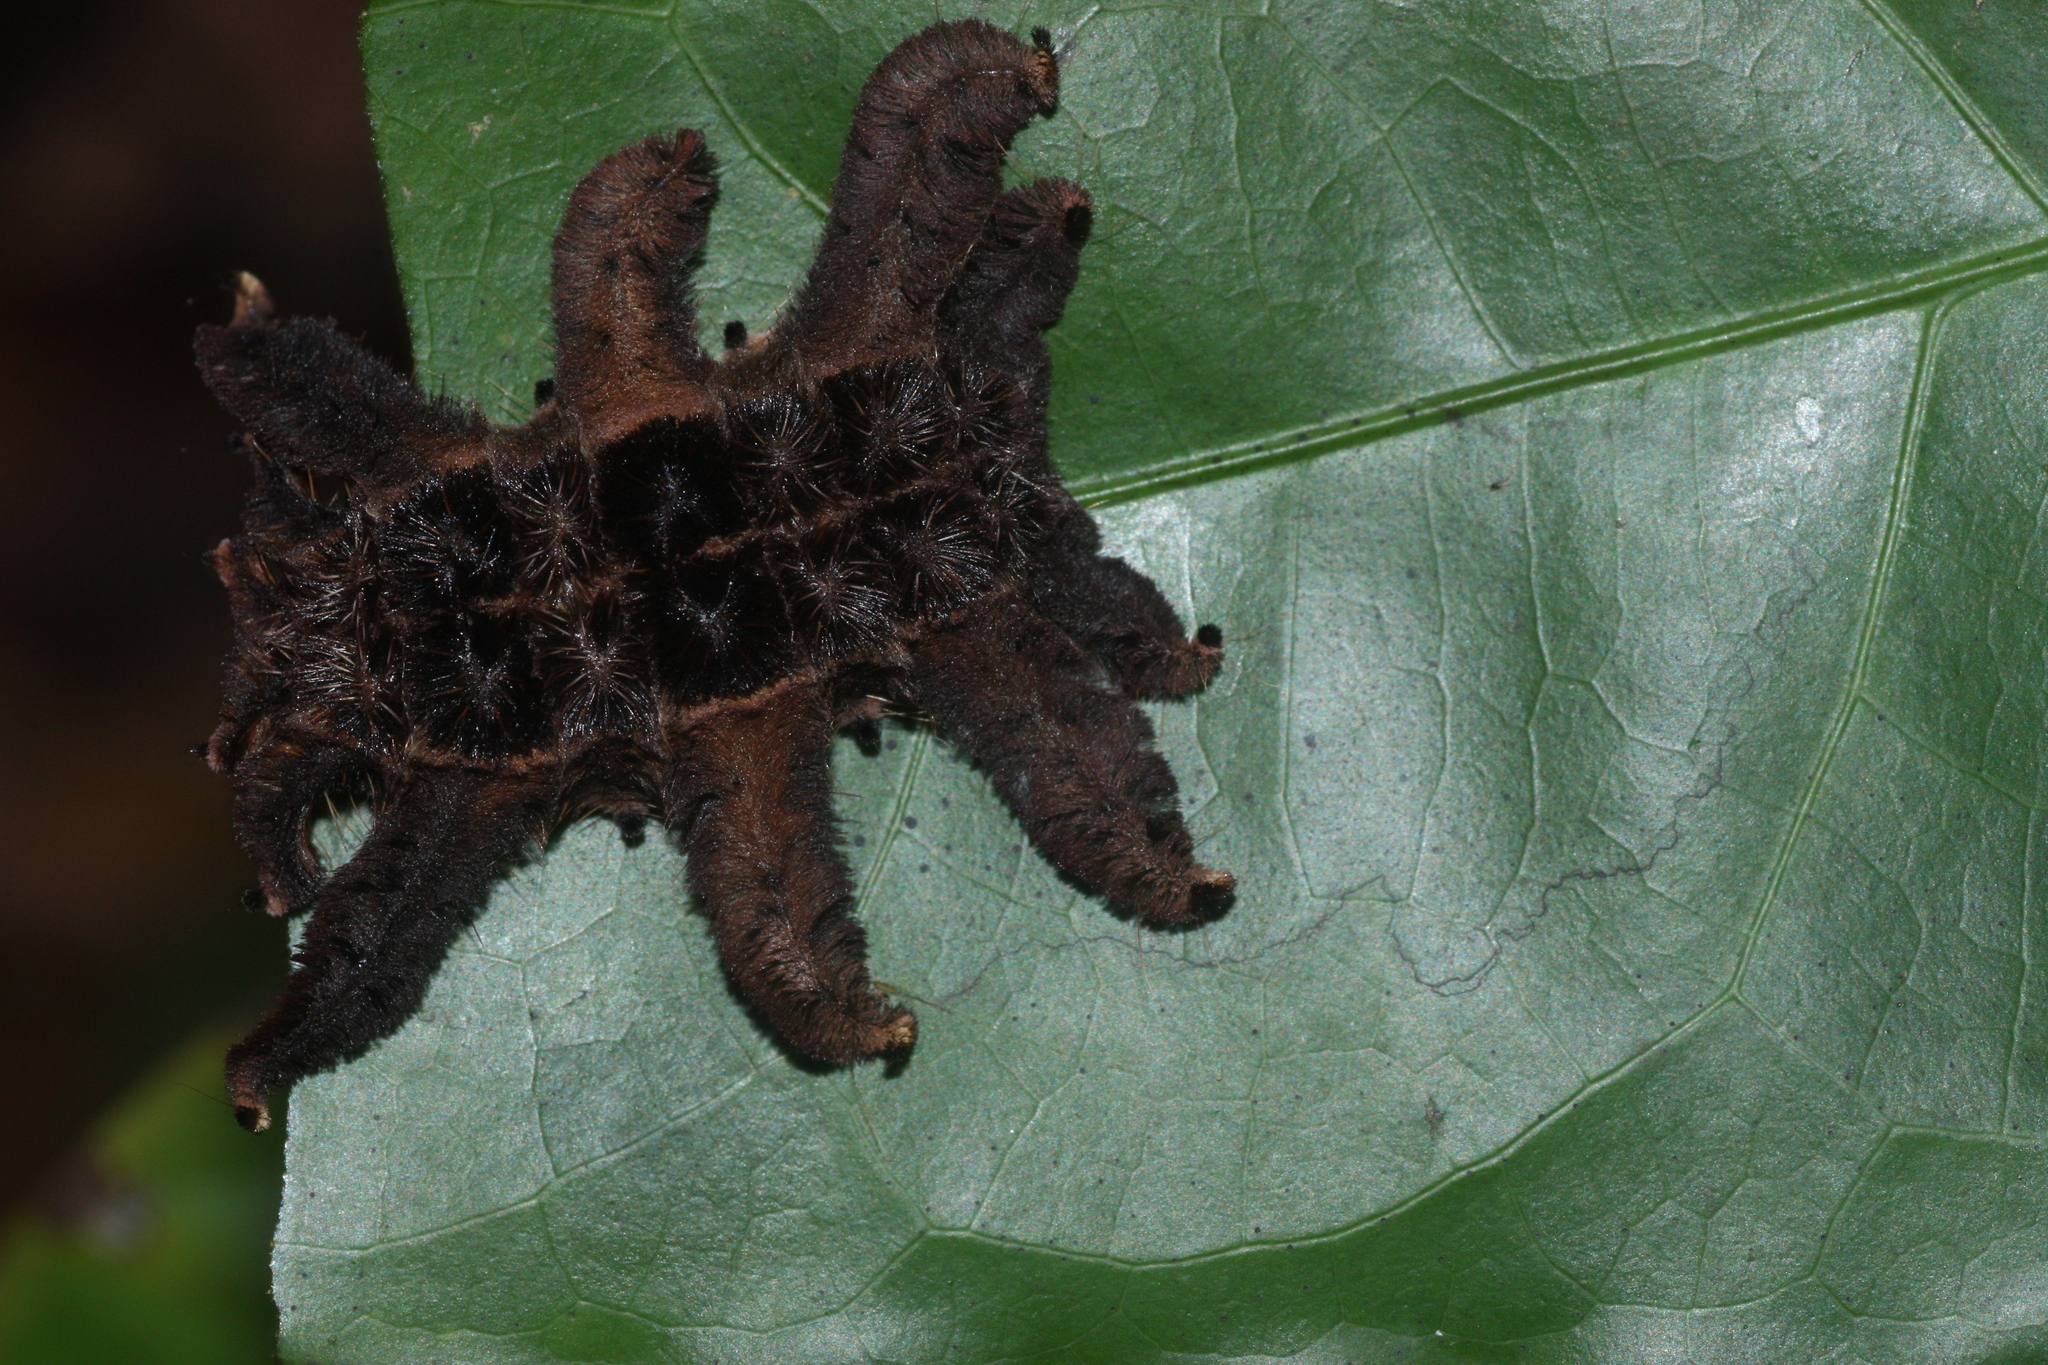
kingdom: Animalia
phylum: Arthropoda
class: Insecta
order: Lepidoptera
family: Limacodidae
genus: Phobetron
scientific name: Phobetron hipparchia
